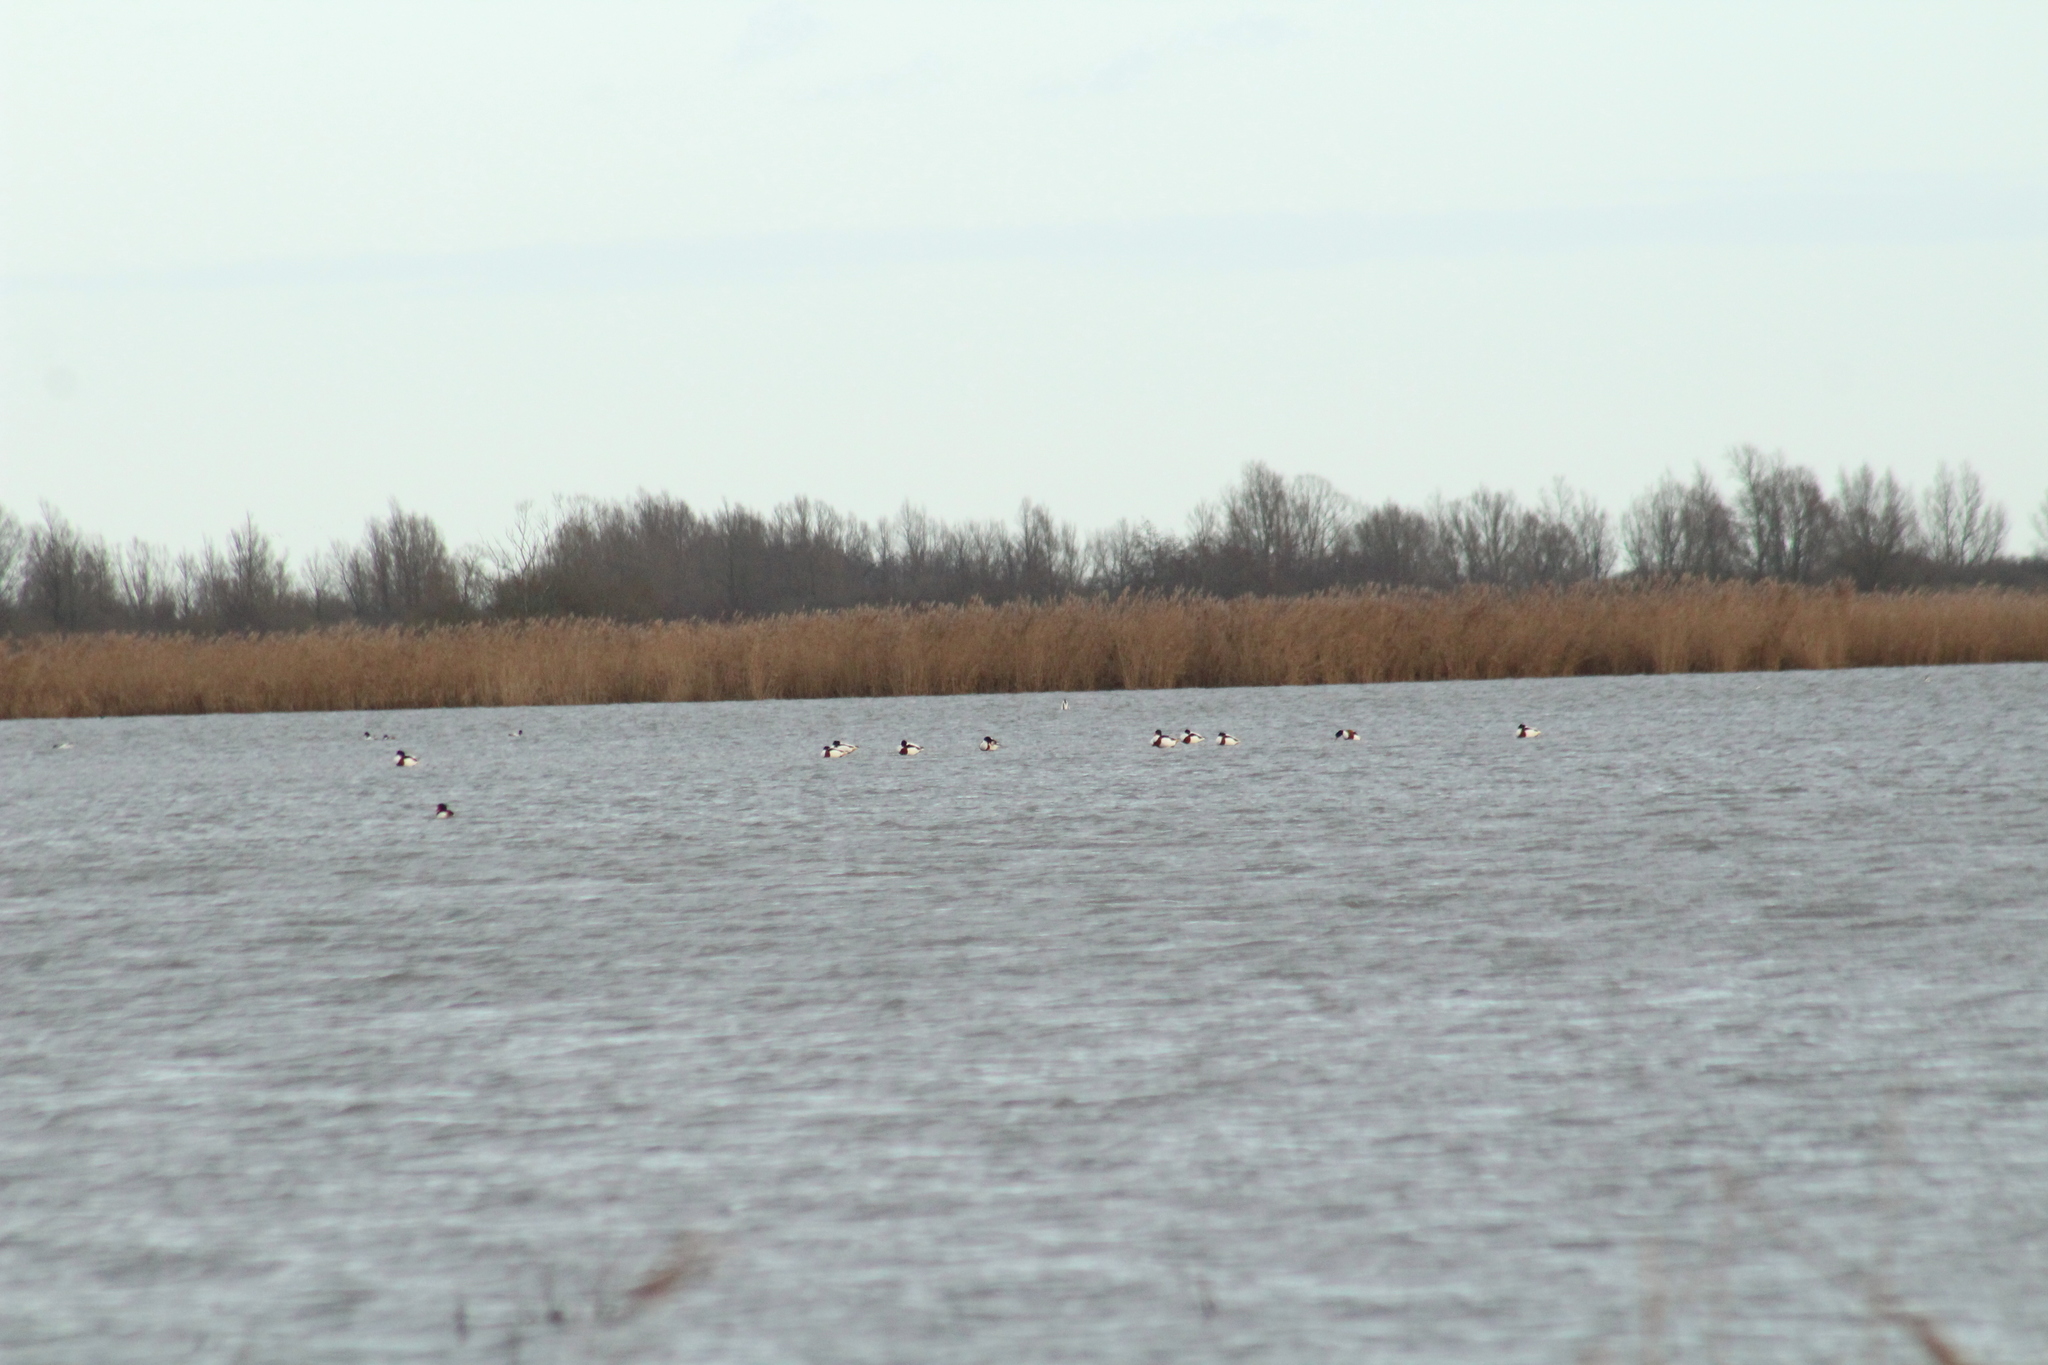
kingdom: Animalia
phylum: Chordata
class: Aves
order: Anseriformes
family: Anatidae
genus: Tadorna
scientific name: Tadorna tadorna
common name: Common shelduck
